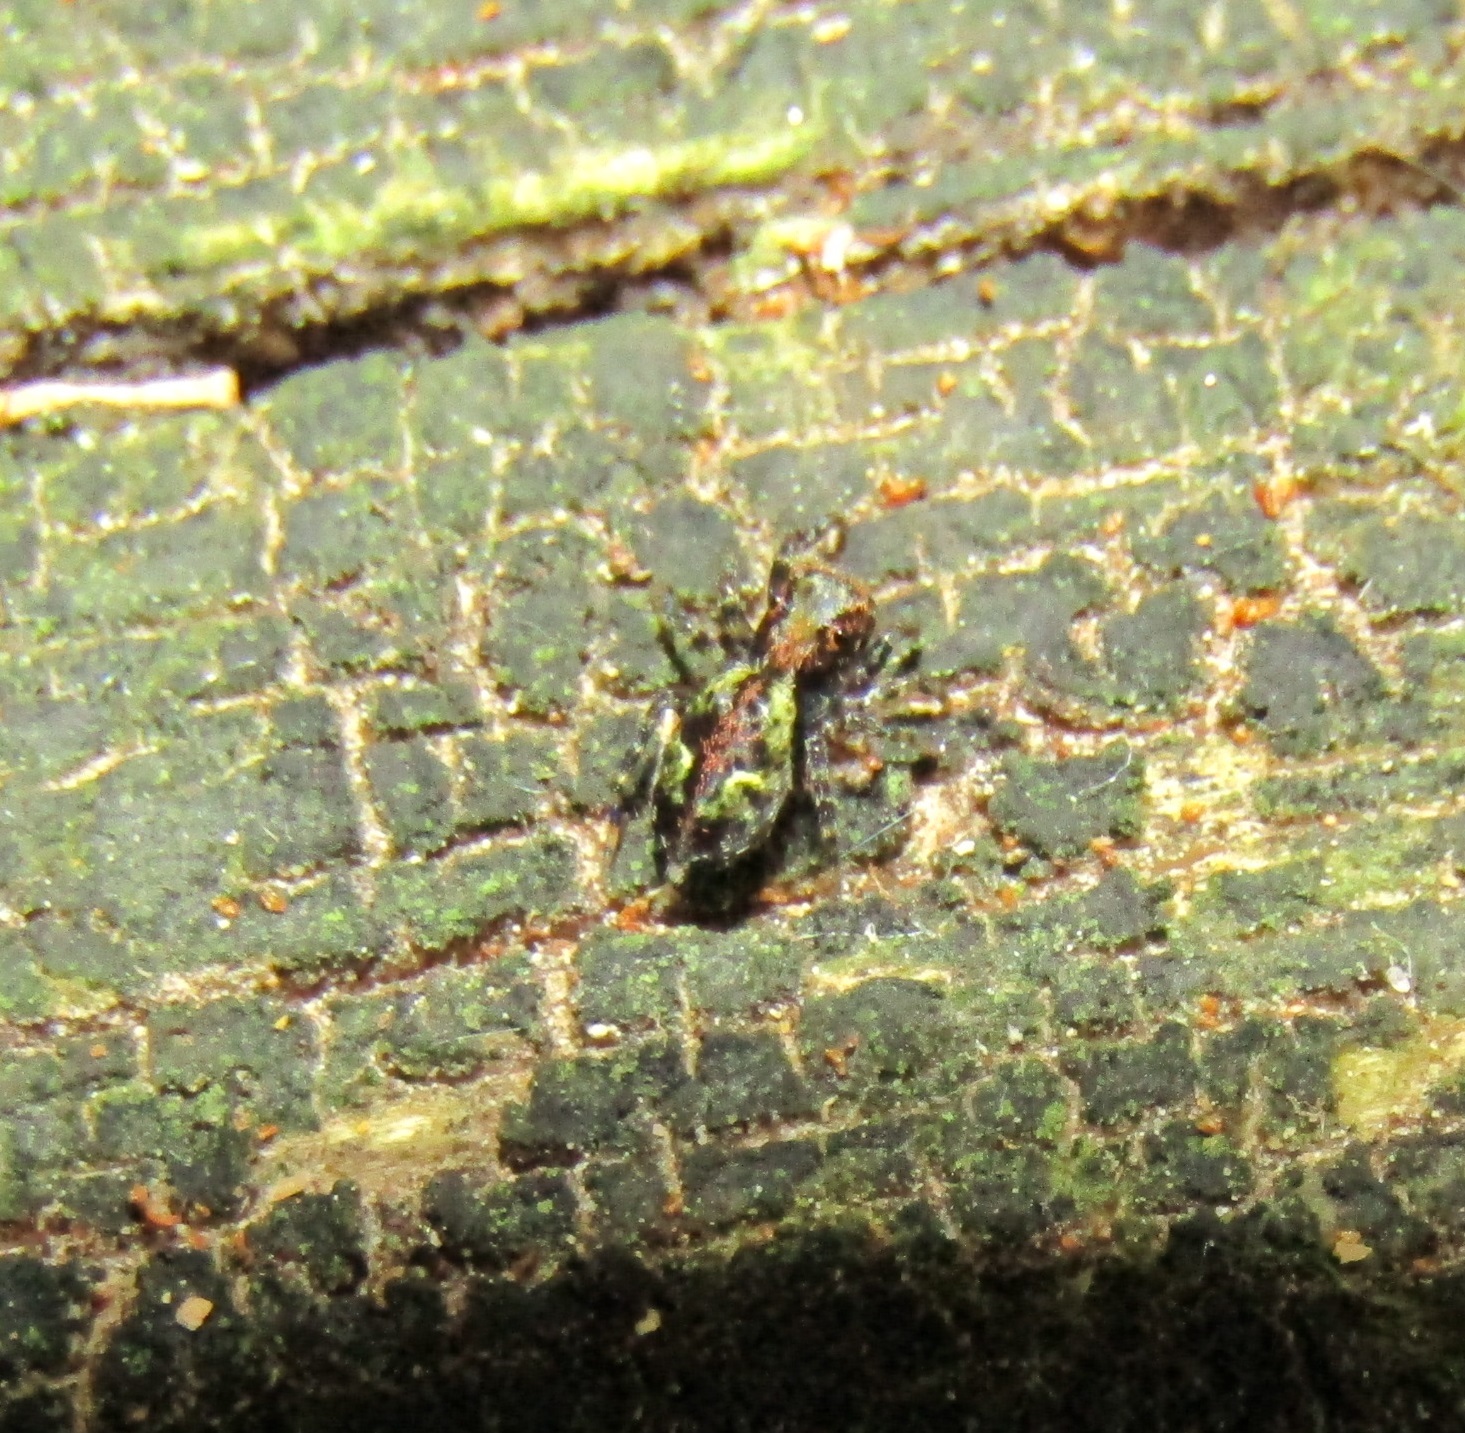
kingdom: Animalia
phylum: Arthropoda
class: Arachnida
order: Araneae
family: Salticidae
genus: Hinewaia
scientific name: Hinewaia embolica
